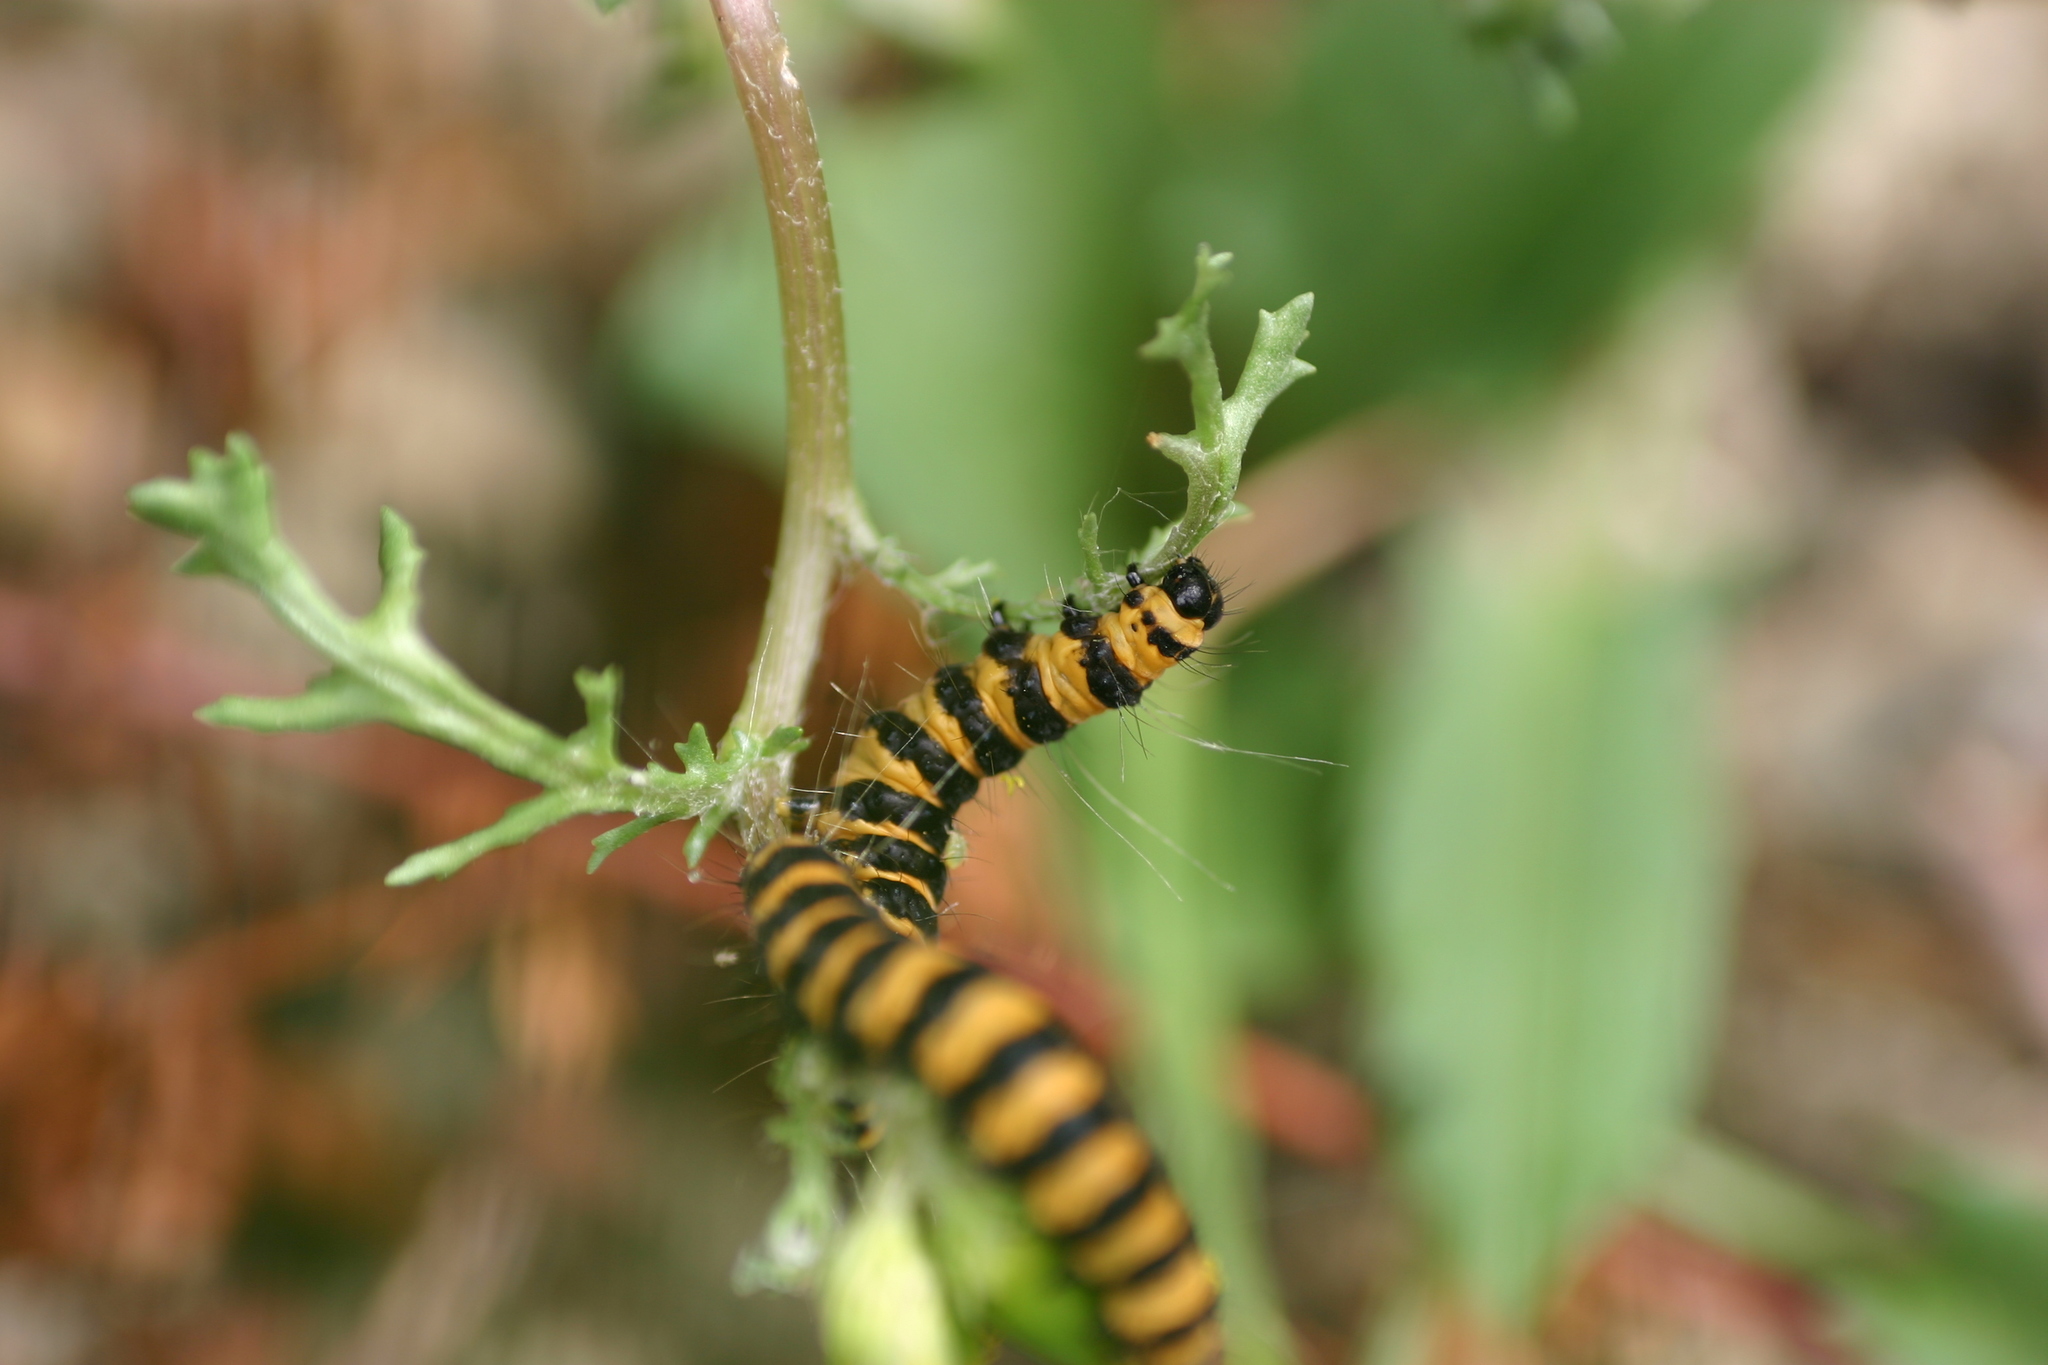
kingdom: Animalia
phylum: Arthropoda
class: Insecta
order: Lepidoptera
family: Erebidae
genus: Tyria
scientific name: Tyria jacobaeae
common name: Cinnabar
